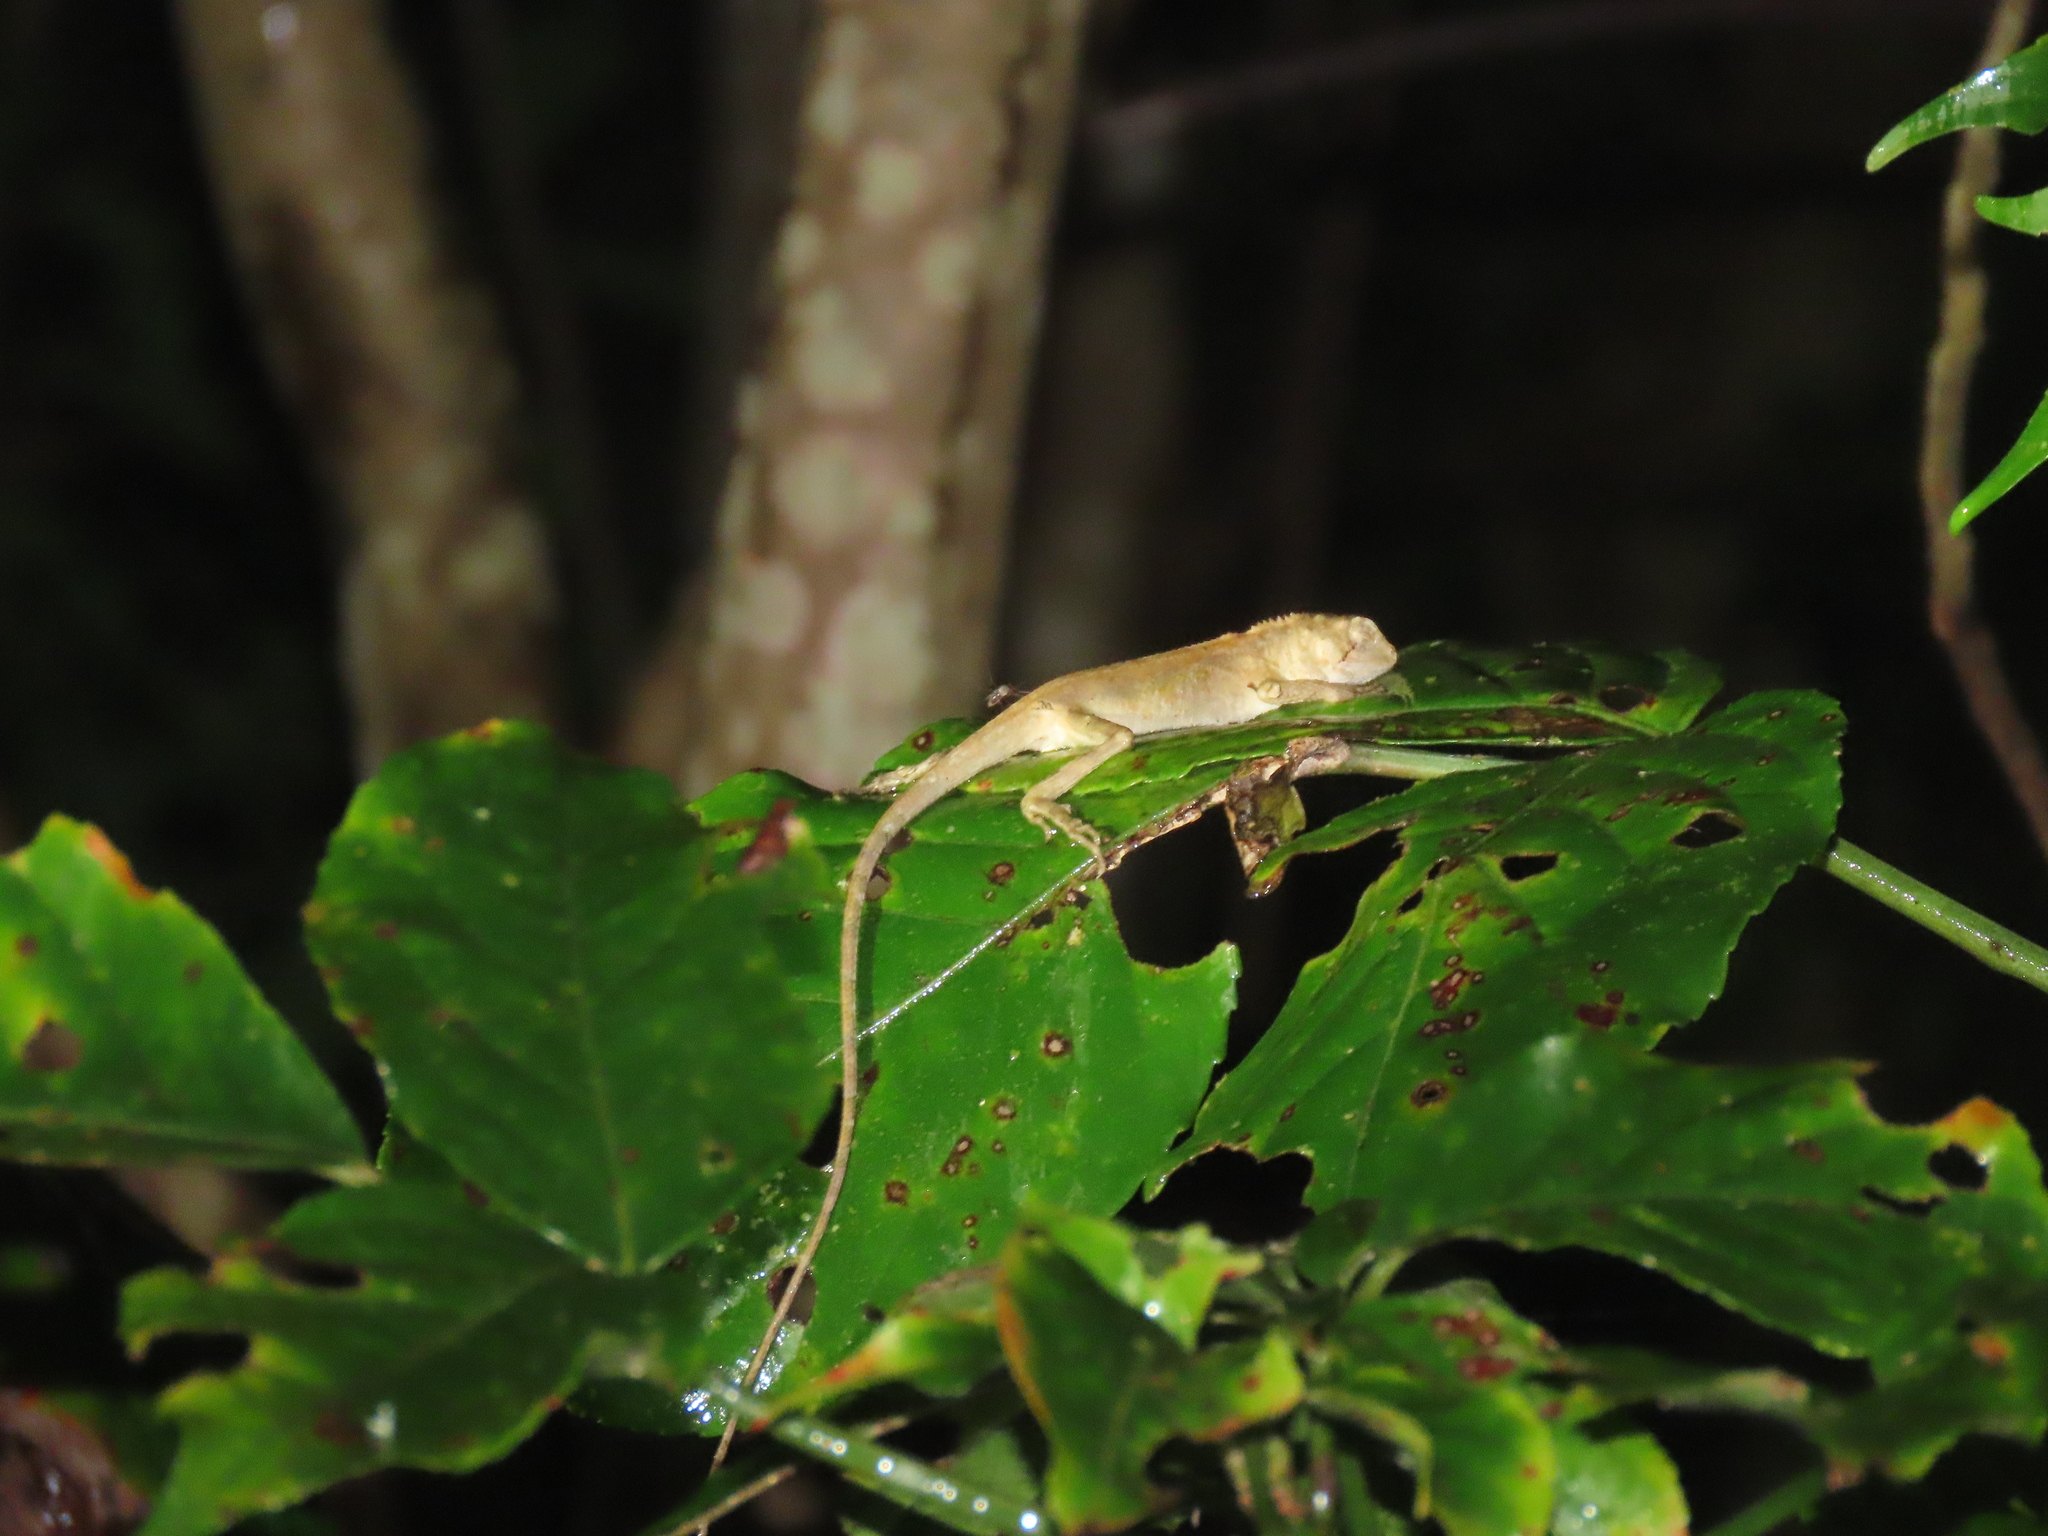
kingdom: Animalia
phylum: Chordata
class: Squamata
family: Agamidae
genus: Diploderma
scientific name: Diploderma swinhonis
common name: Taiwan japalure
